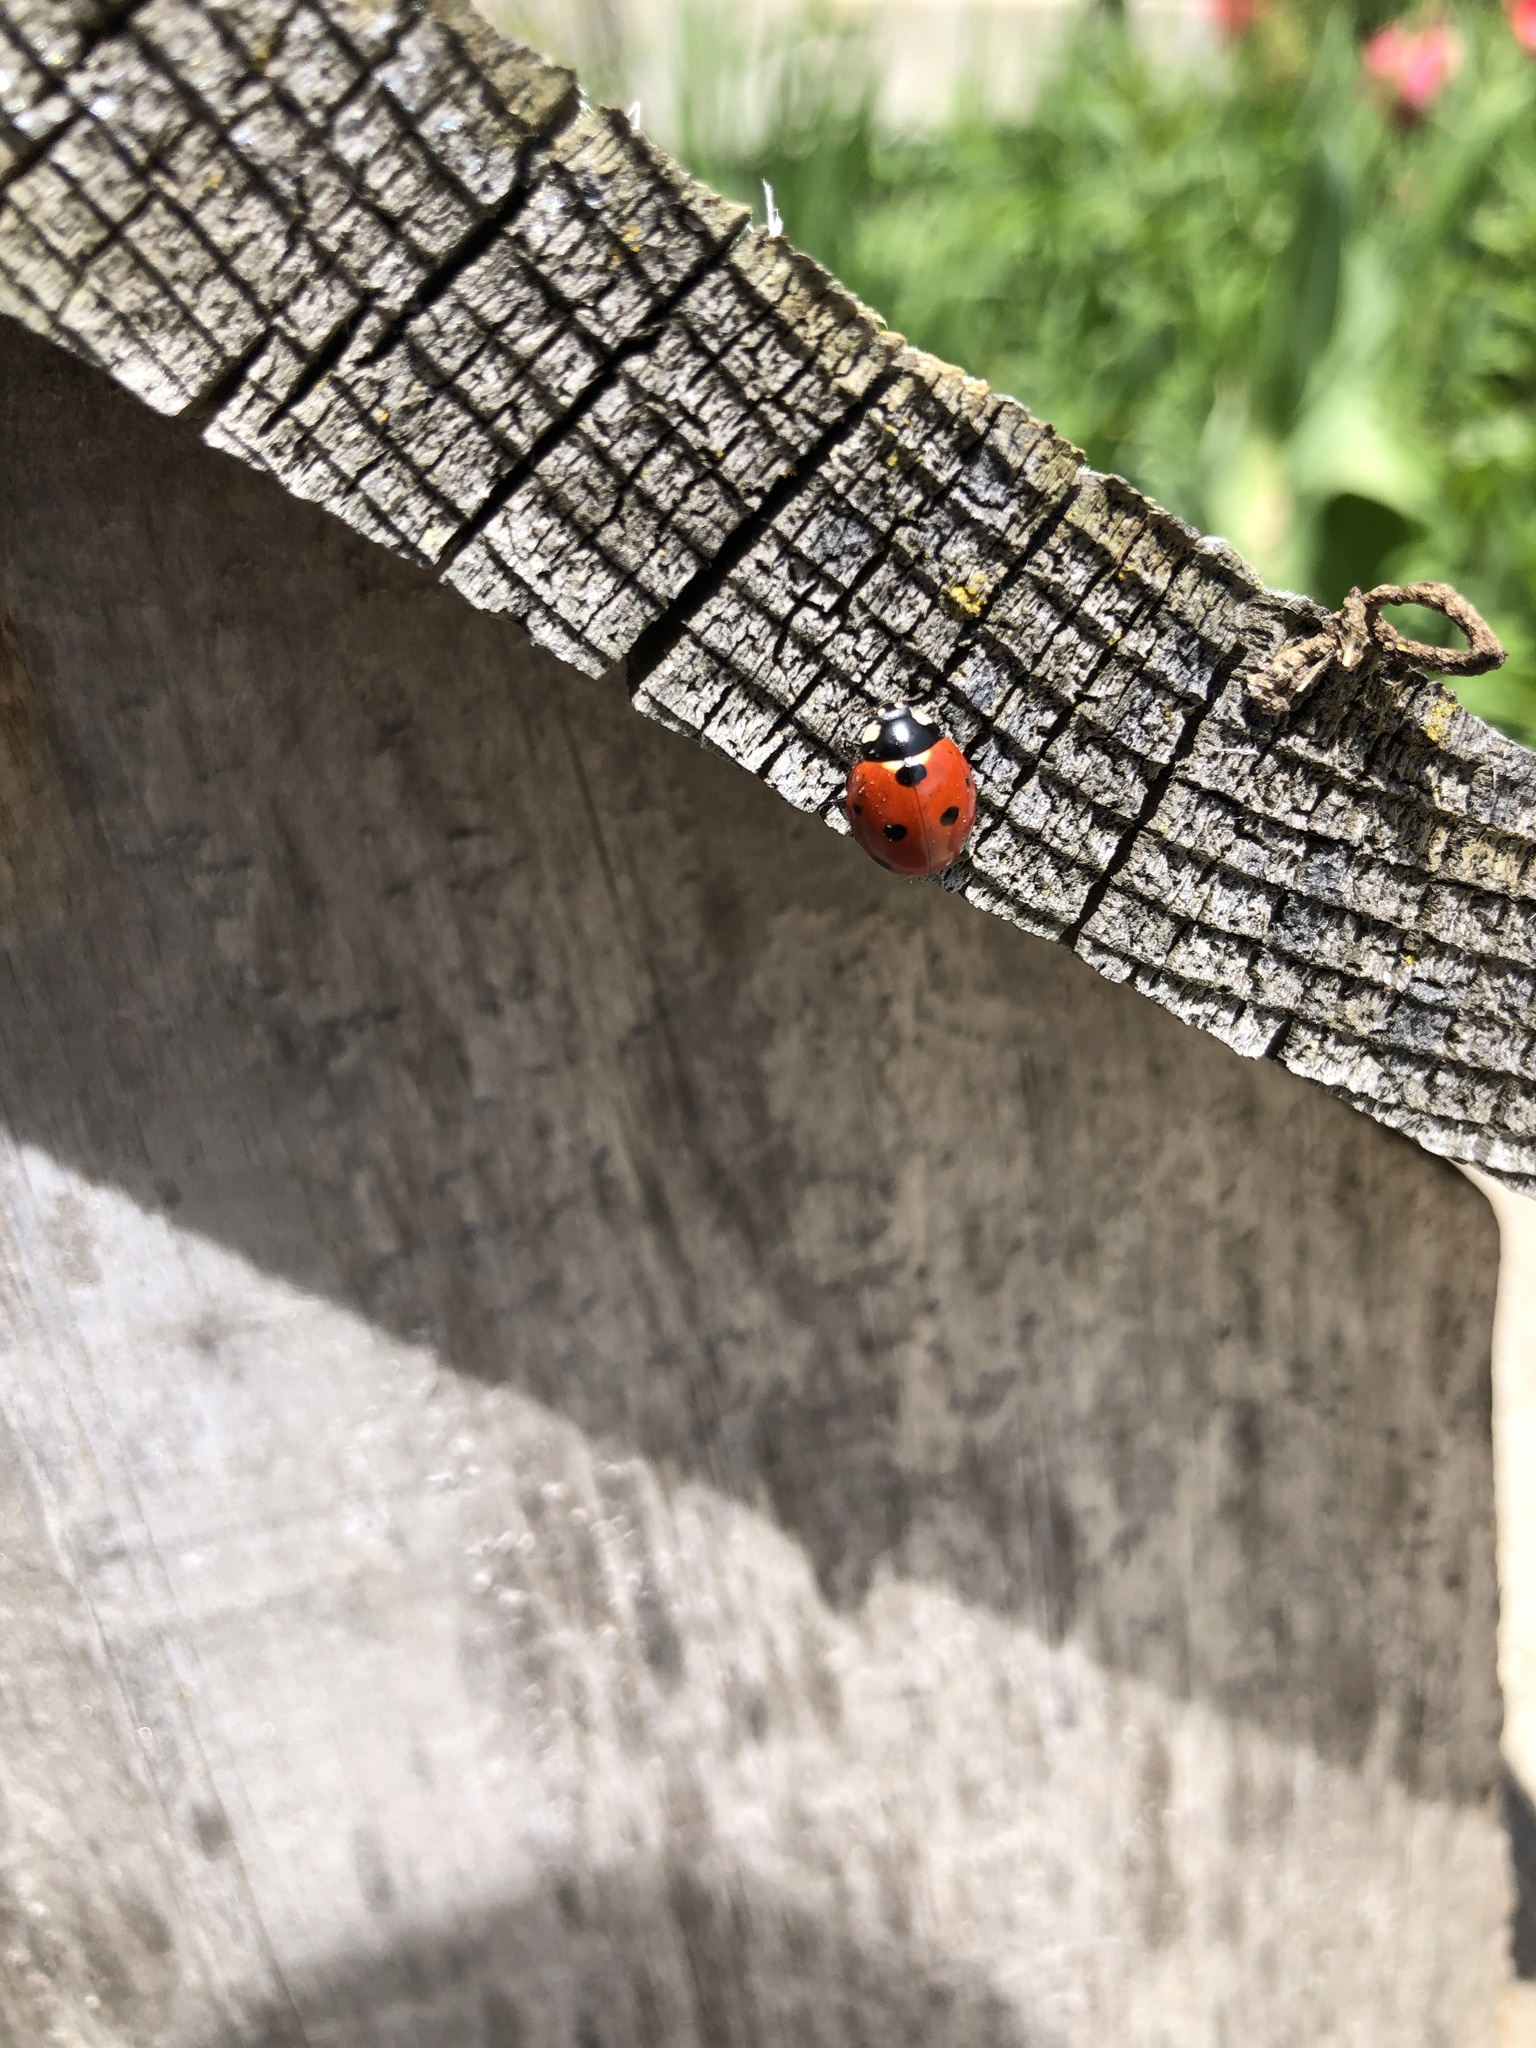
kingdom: Animalia
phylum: Arthropoda
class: Insecta
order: Coleoptera
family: Coccinellidae
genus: Coccinella
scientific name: Coccinella septempunctata
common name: Sevenspotted lady beetle
